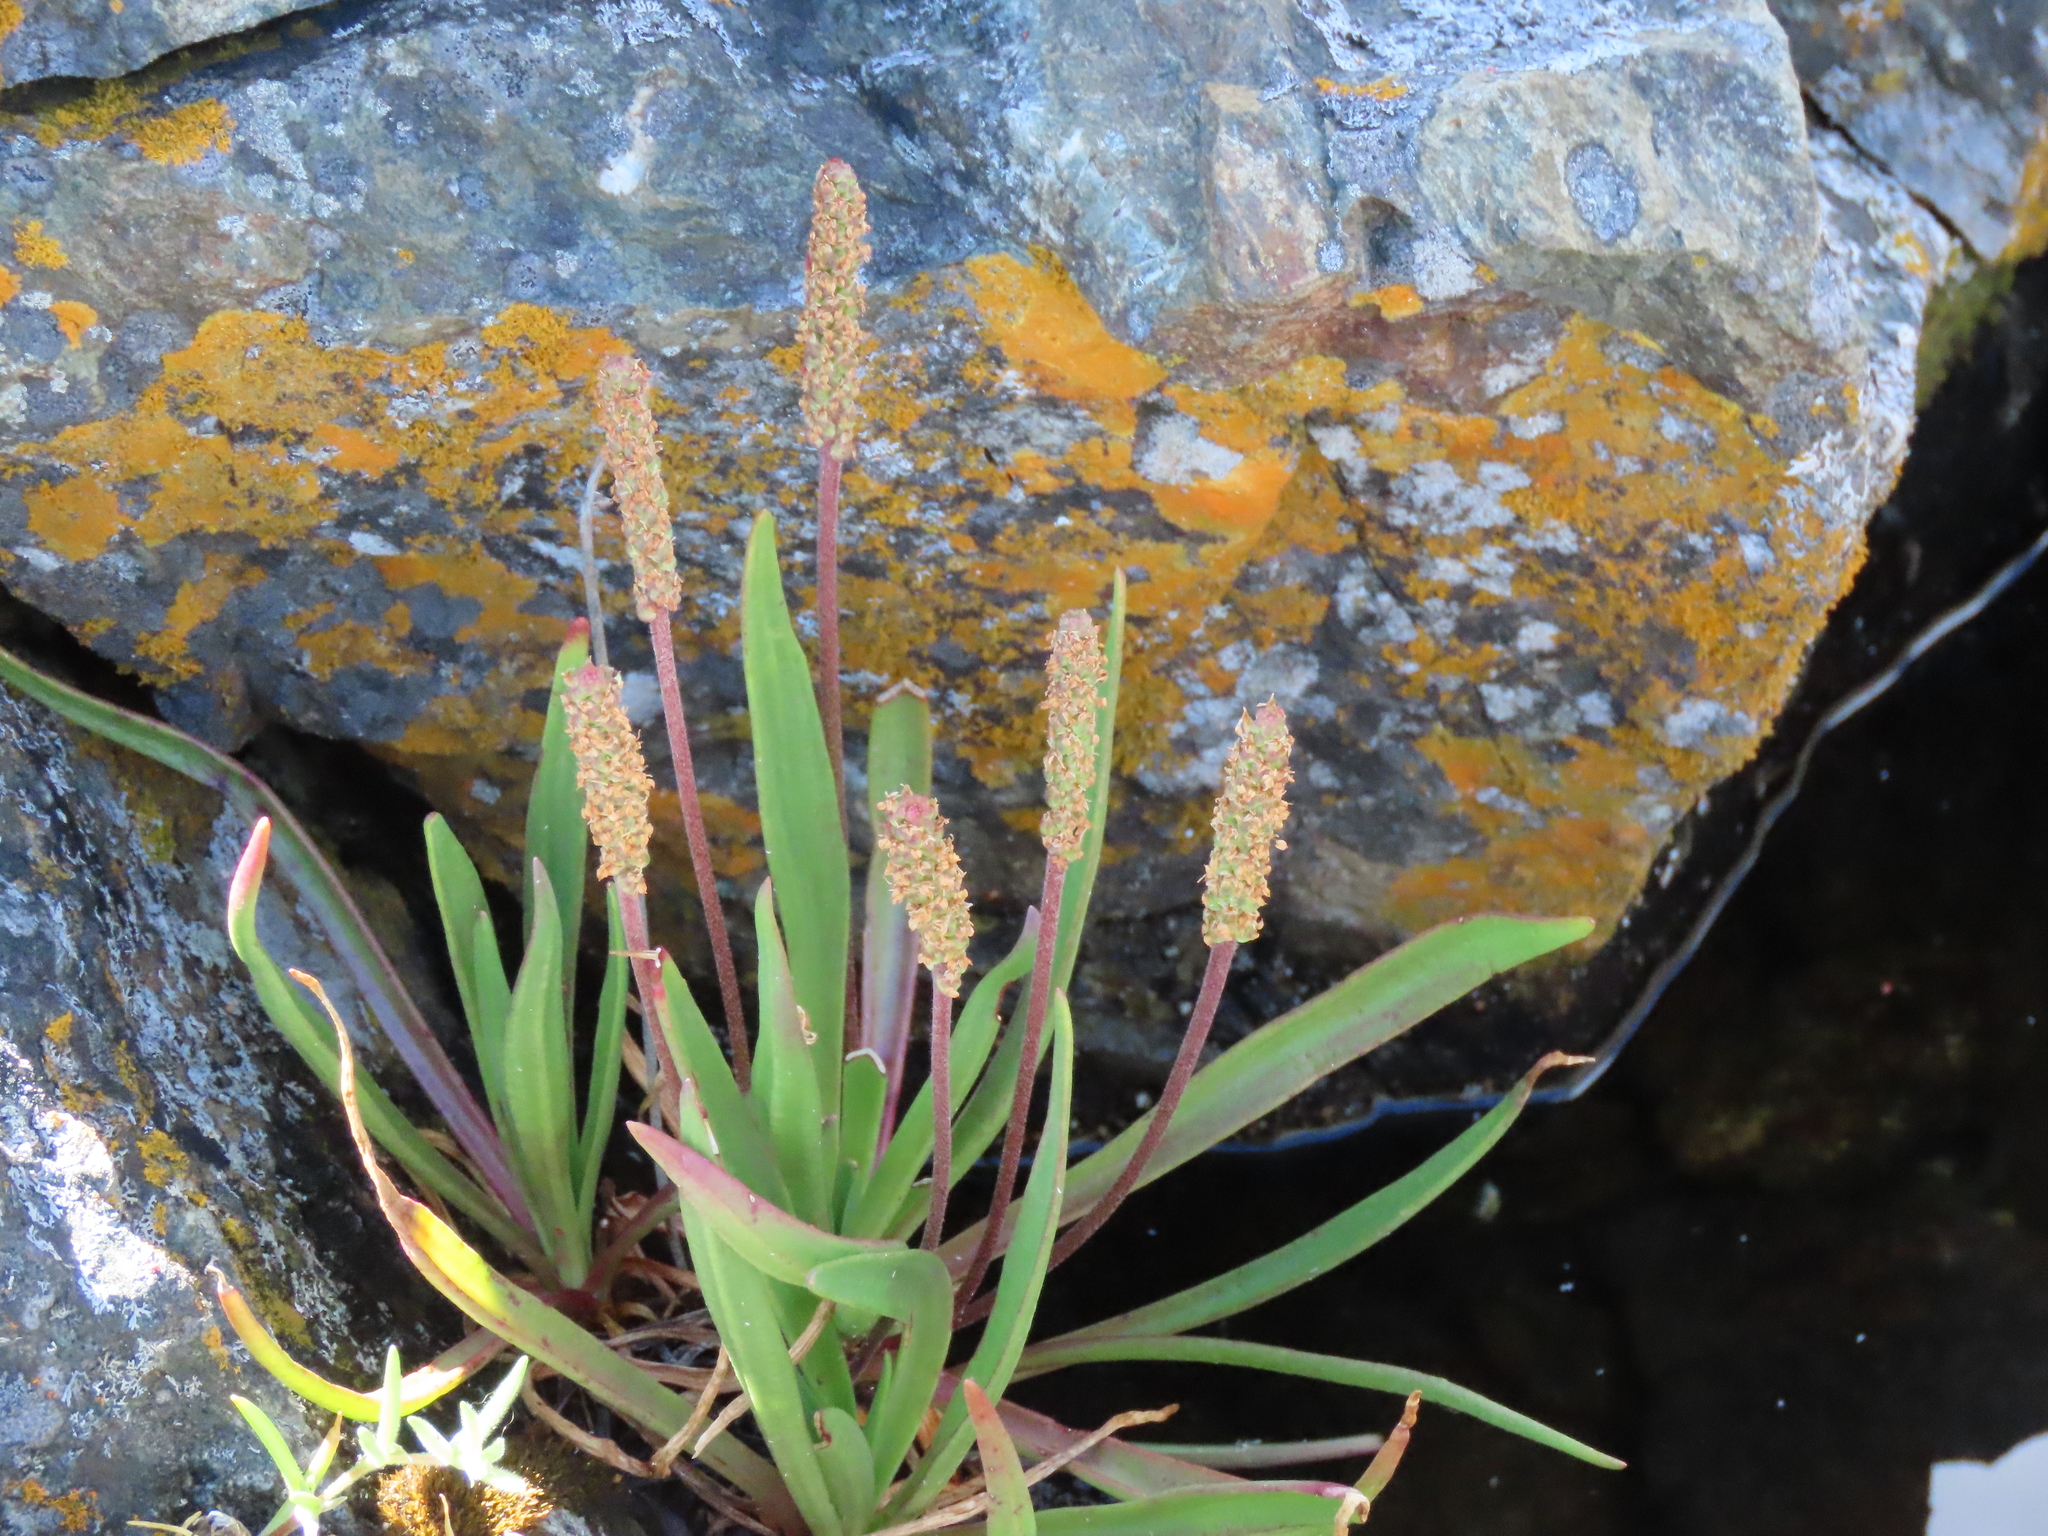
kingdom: Plantae
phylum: Tracheophyta
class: Magnoliopsida
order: Lamiales
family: Plantaginaceae
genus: Plantago
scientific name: Plantago maritima
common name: Sea plantain
